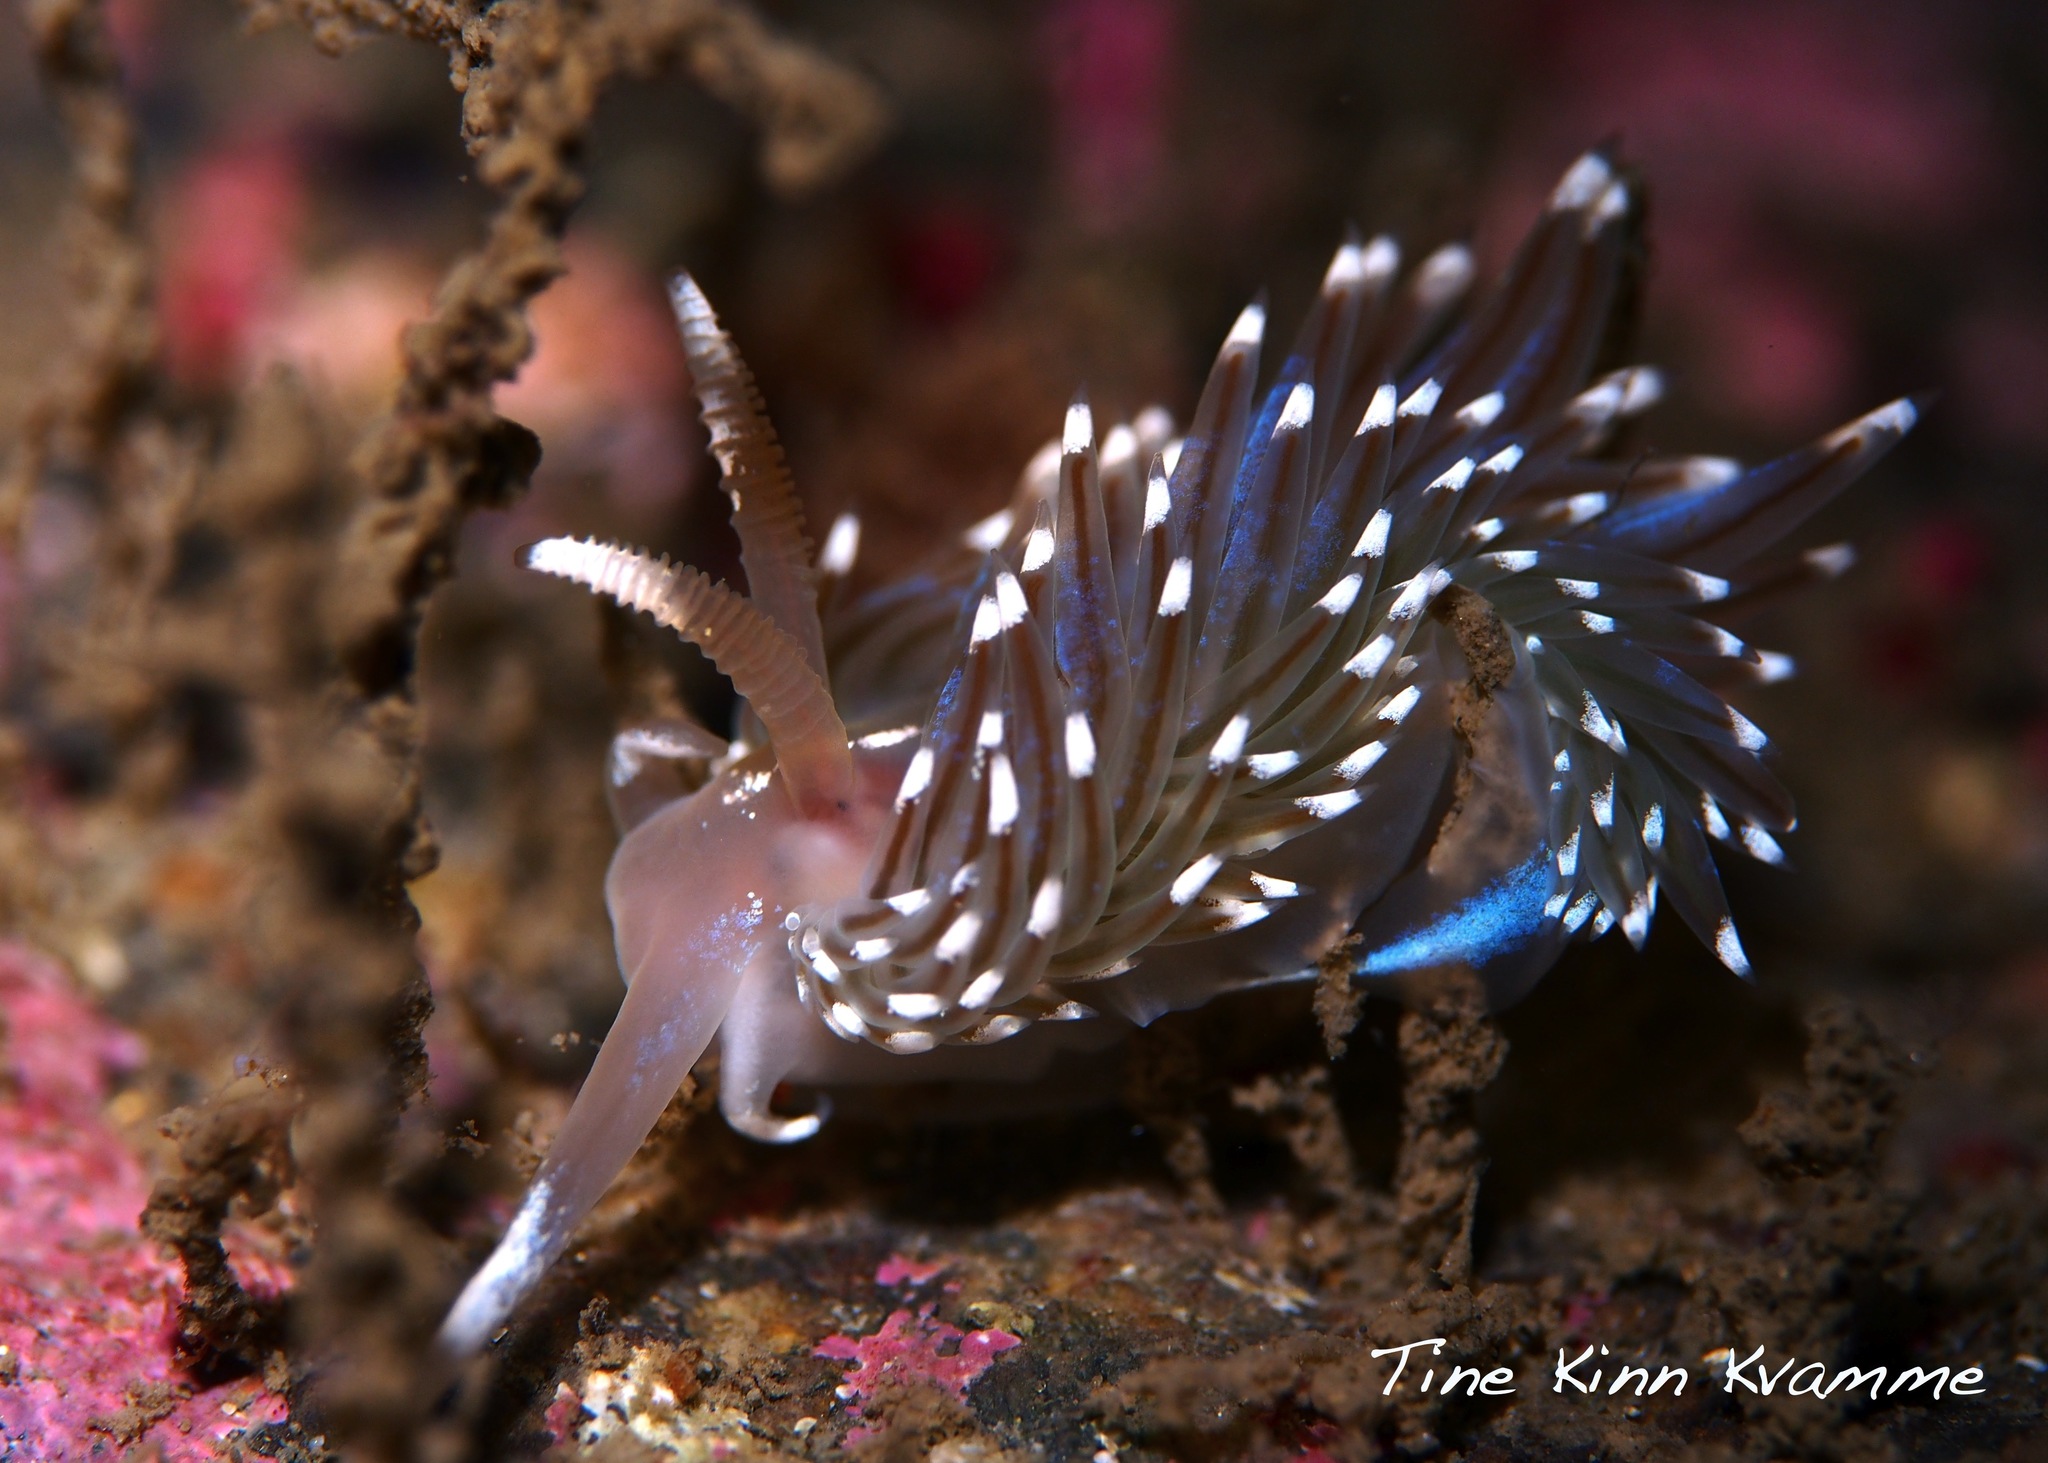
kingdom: Animalia
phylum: Mollusca
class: Gastropoda
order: Nudibranchia
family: Facelinidae
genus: Facelina
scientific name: Facelina auriculata
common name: Slender facelina
